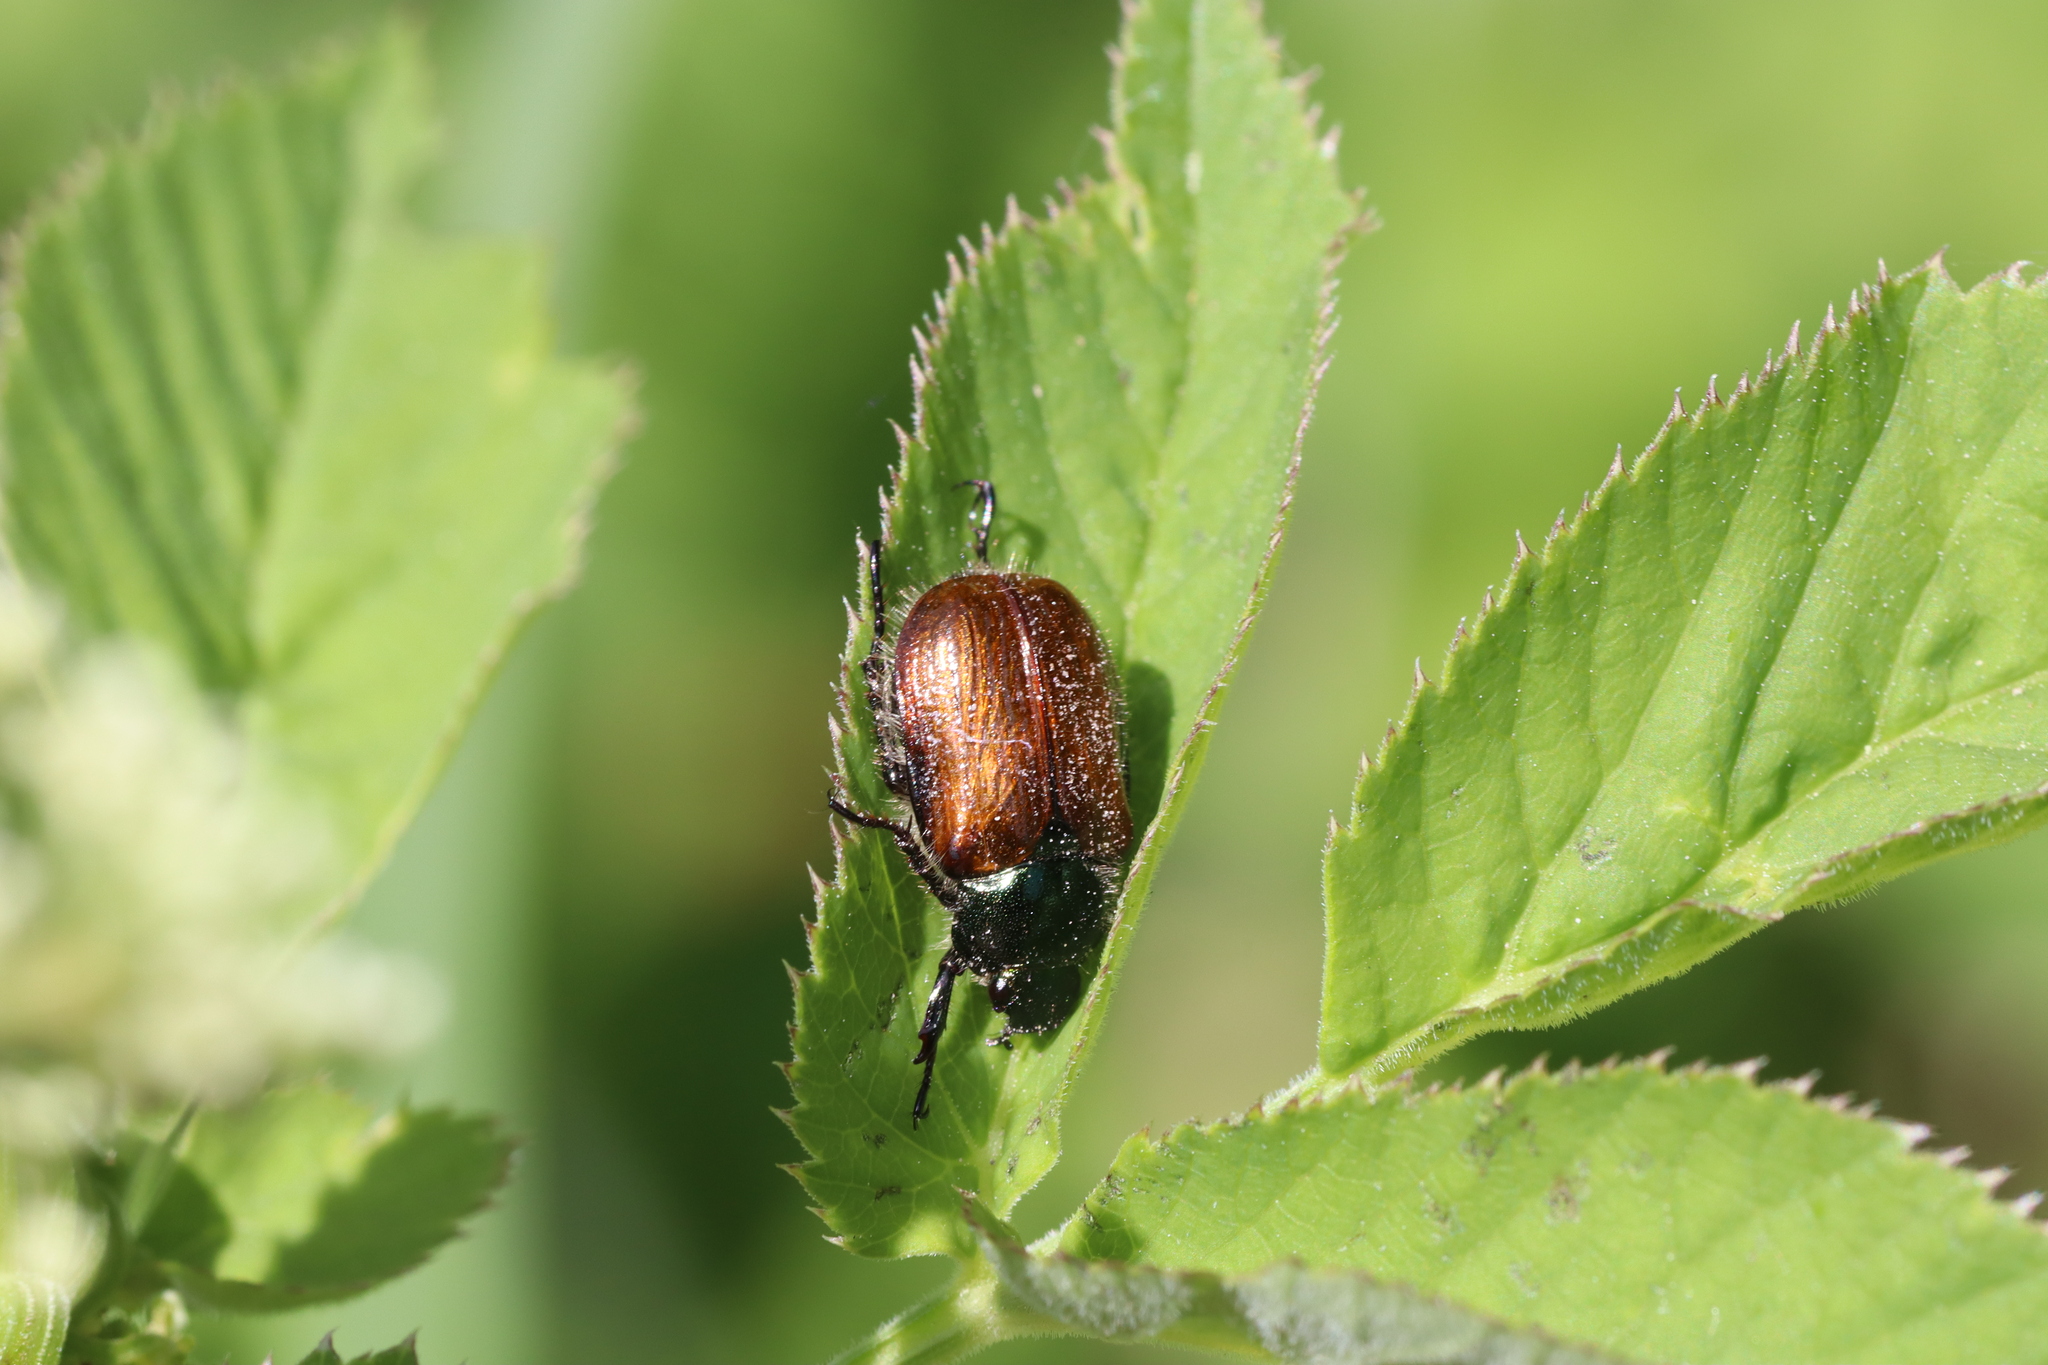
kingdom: Animalia
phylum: Arthropoda
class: Insecta
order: Coleoptera
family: Scarabaeidae
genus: Phyllopertha
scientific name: Phyllopertha horticola
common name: Garden chafer
